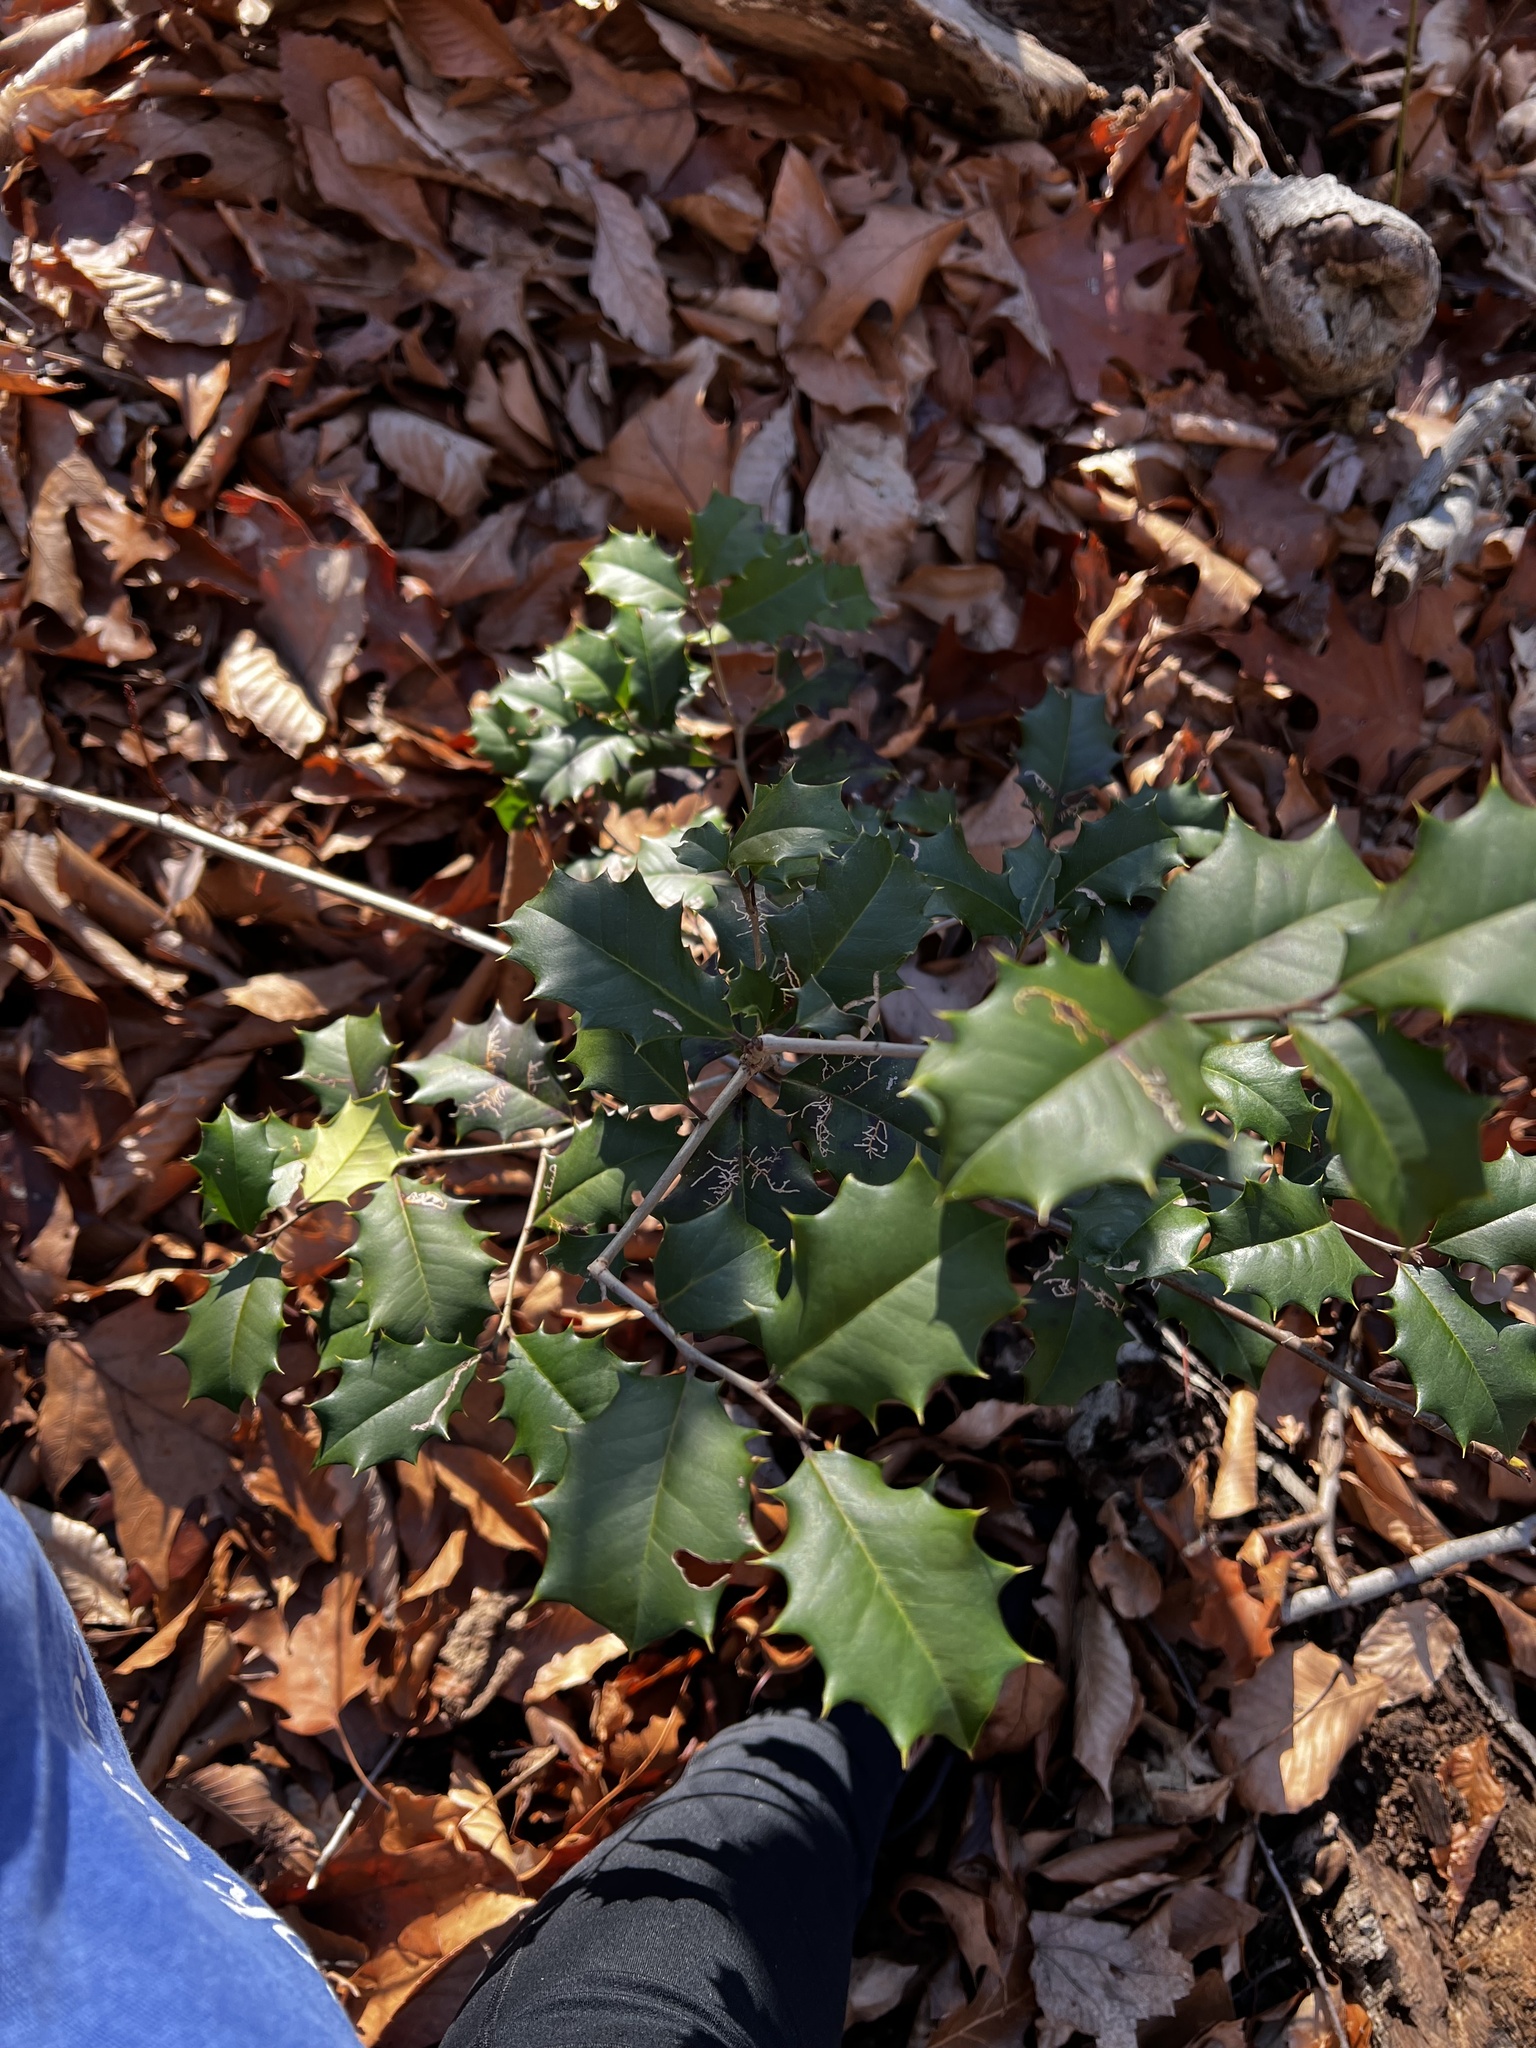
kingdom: Plantae
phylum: Tracheophyta
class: Magnoliopsida
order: Aquifoliales
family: Aquifoliaceae
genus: Ilex
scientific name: Ilex opaca
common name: American holly
